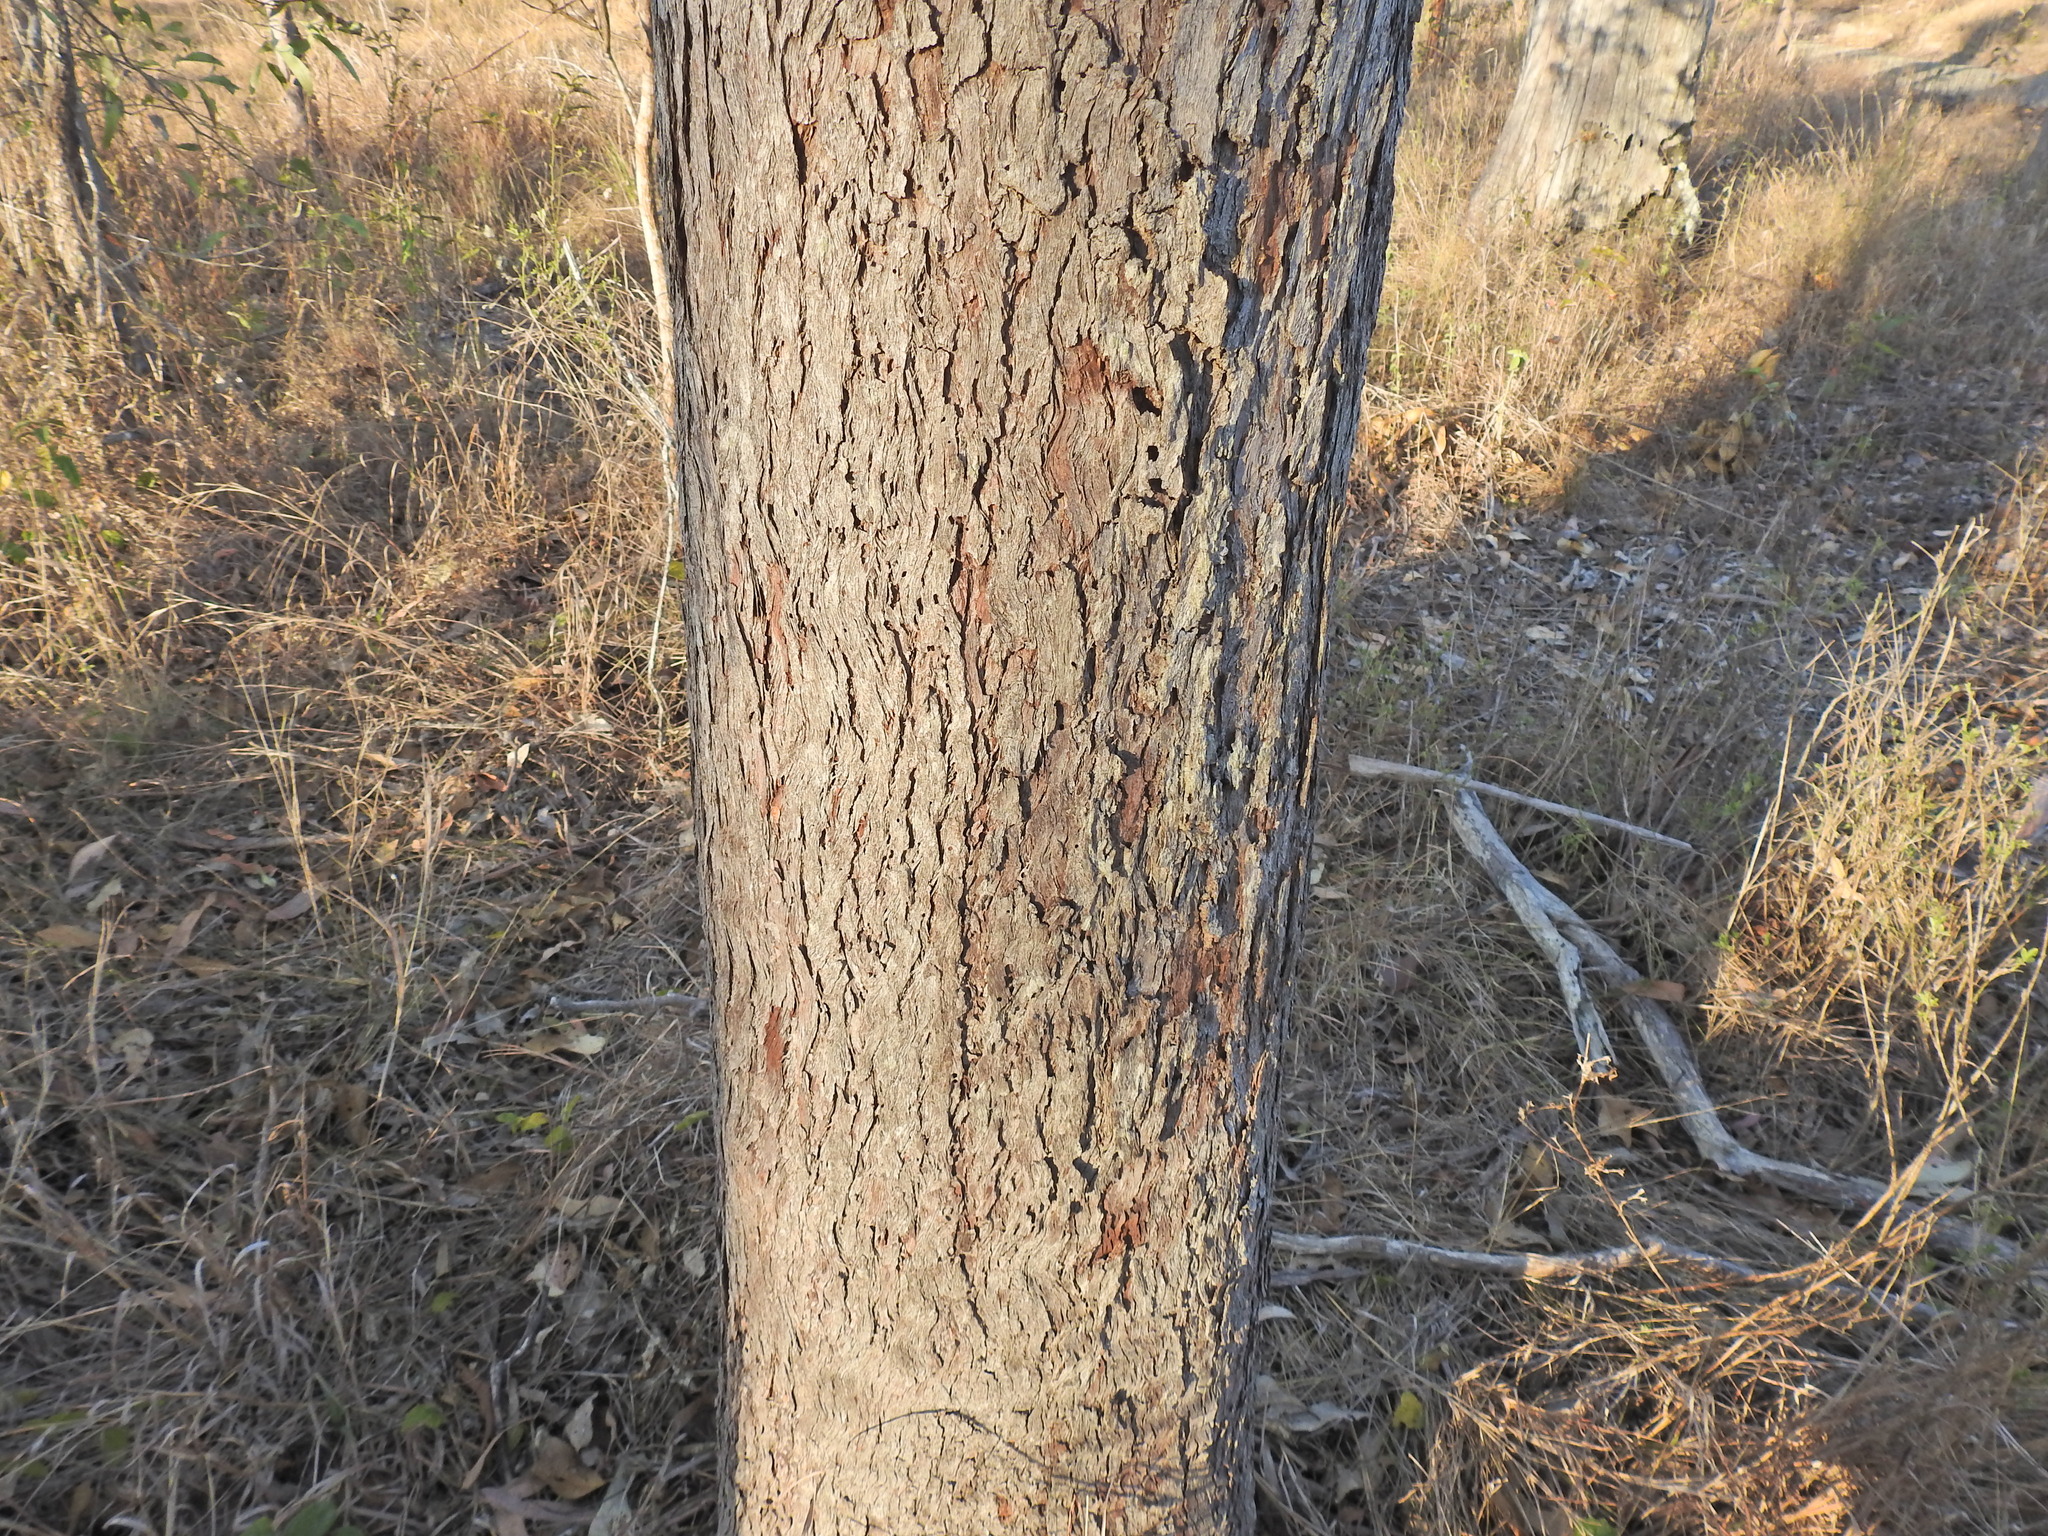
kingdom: Plantae
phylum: Tracheophyta
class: Magnoliopsida
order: Myrtales
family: Myrtaceae
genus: Eucalyptus
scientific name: Eucalyptus exserta
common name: Peppermint-bendo
